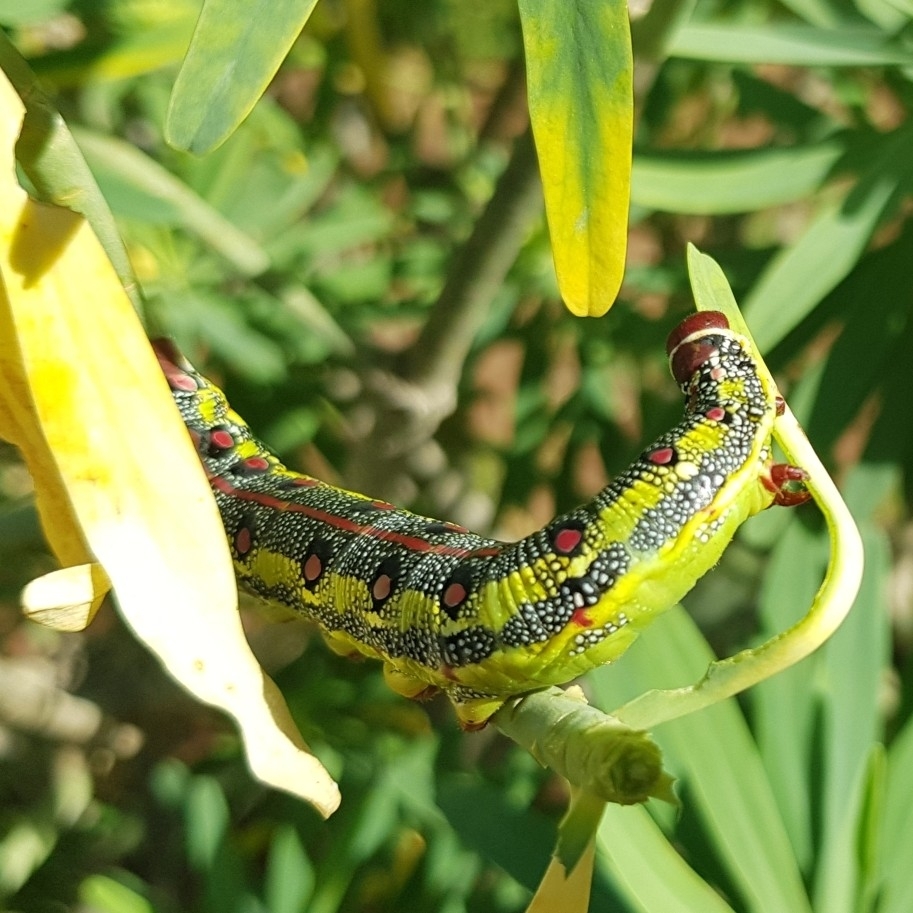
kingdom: Animalia
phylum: Arthropoda
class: Insecta
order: Lepidoptera
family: Sphingidae
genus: Hyles
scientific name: Hyles tithymali
